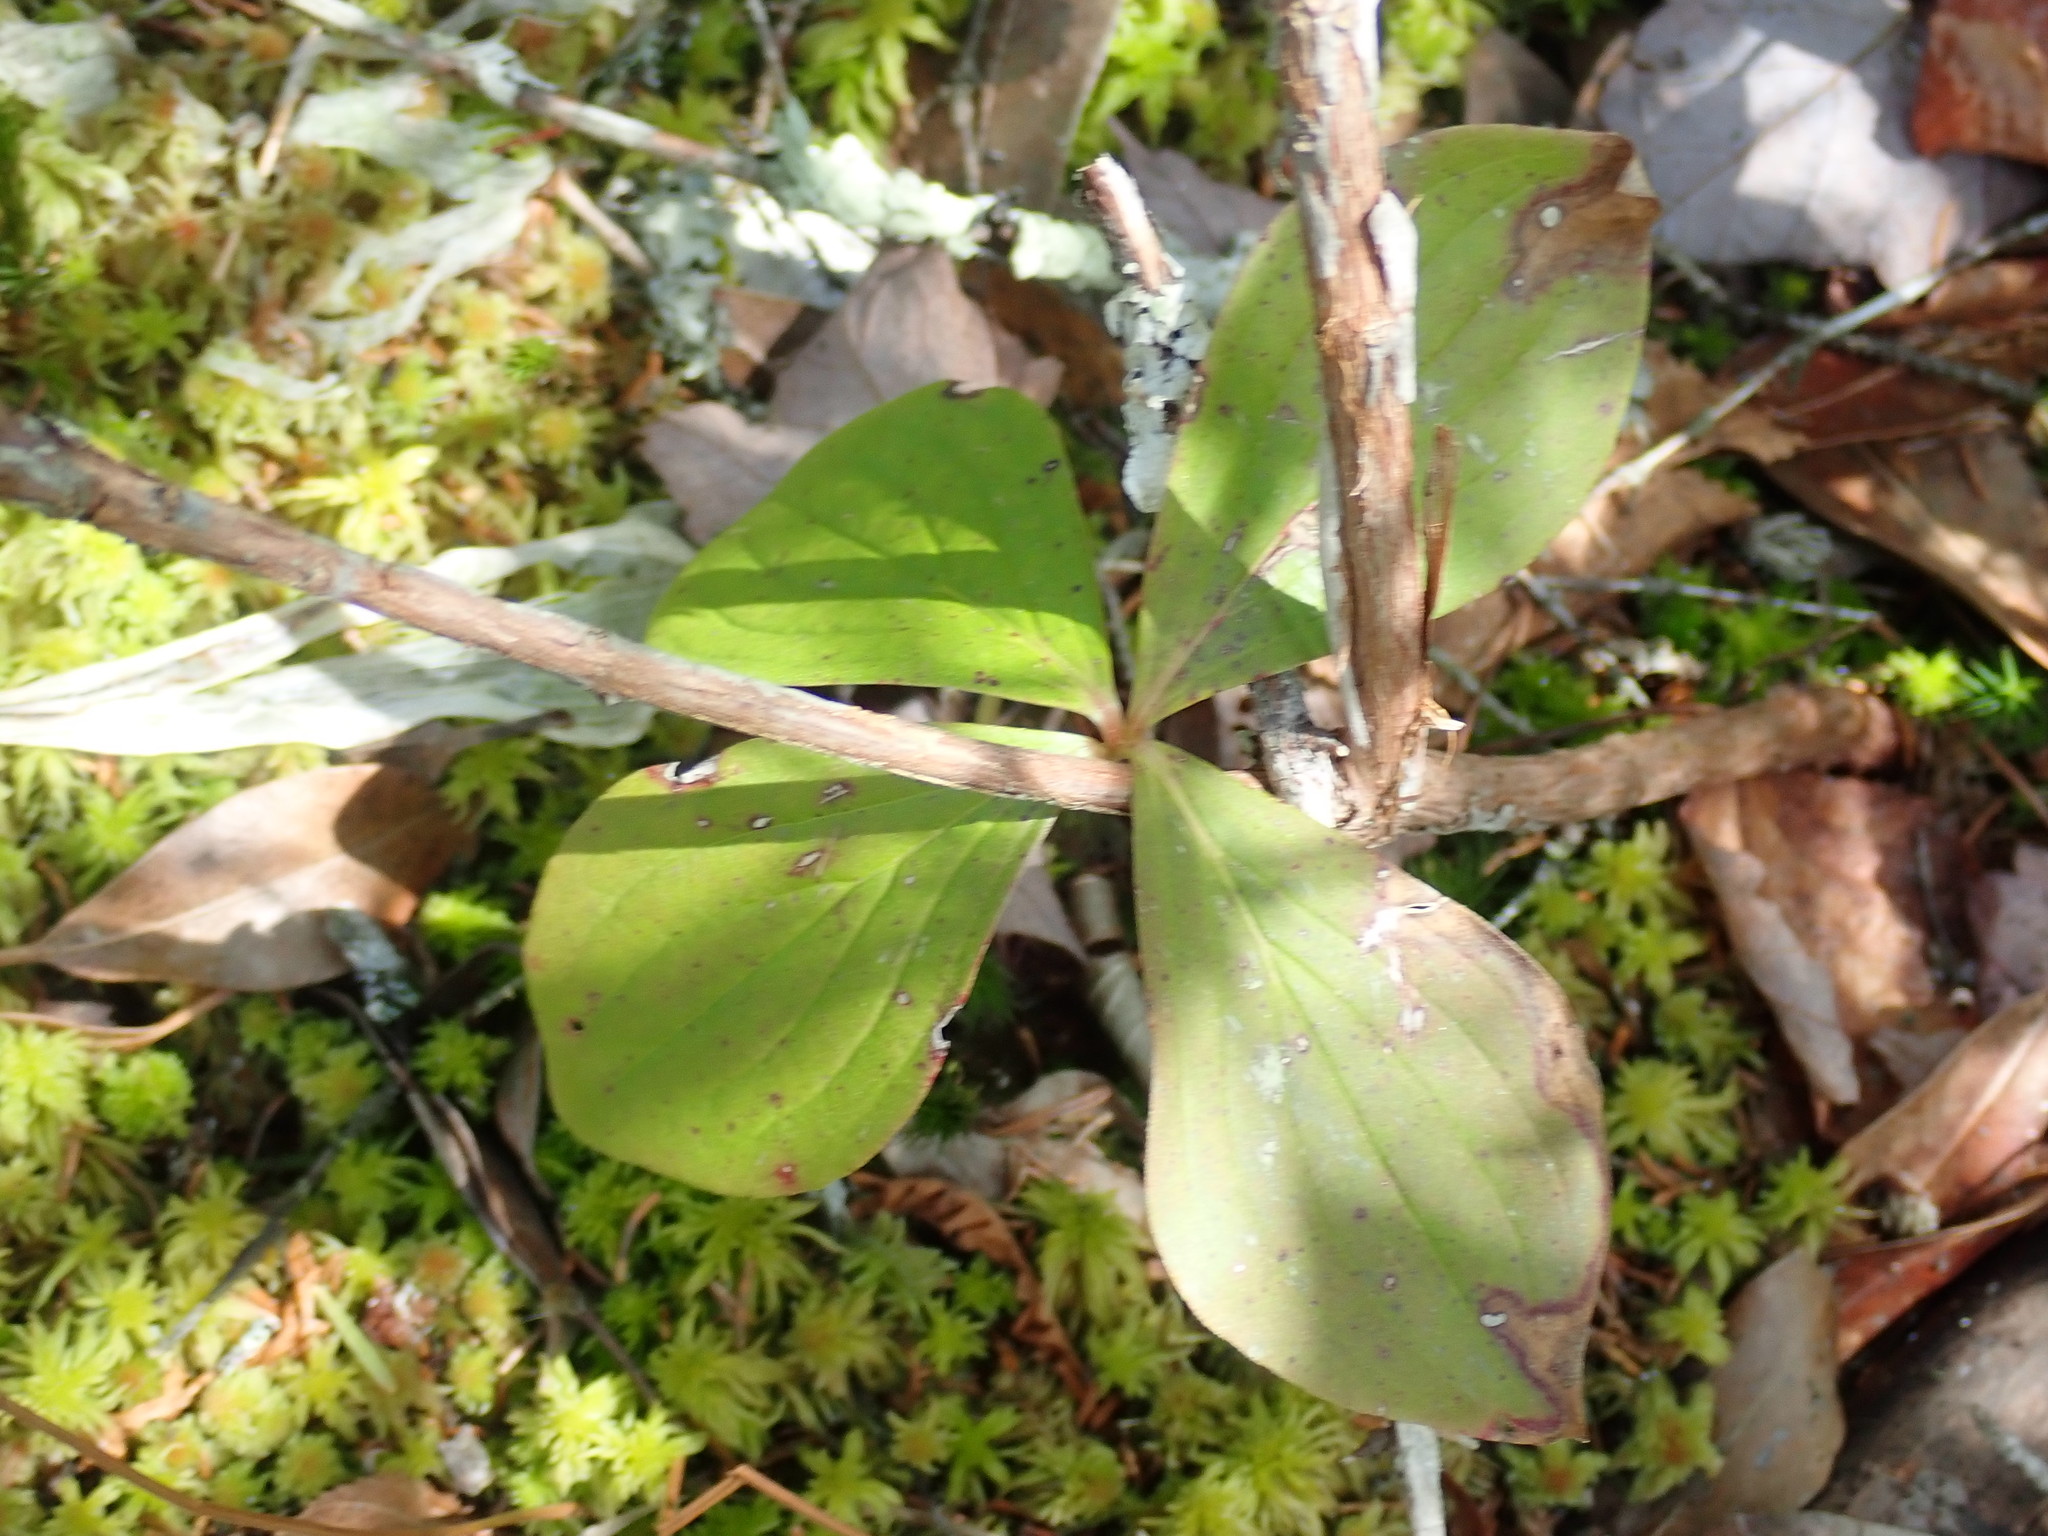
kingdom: Plantae
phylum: Tracheophyta
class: Magnoliopsida
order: Cornales
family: Cornaceae
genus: Cornus
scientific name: Cornus canadensis
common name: Creeping dogwood
